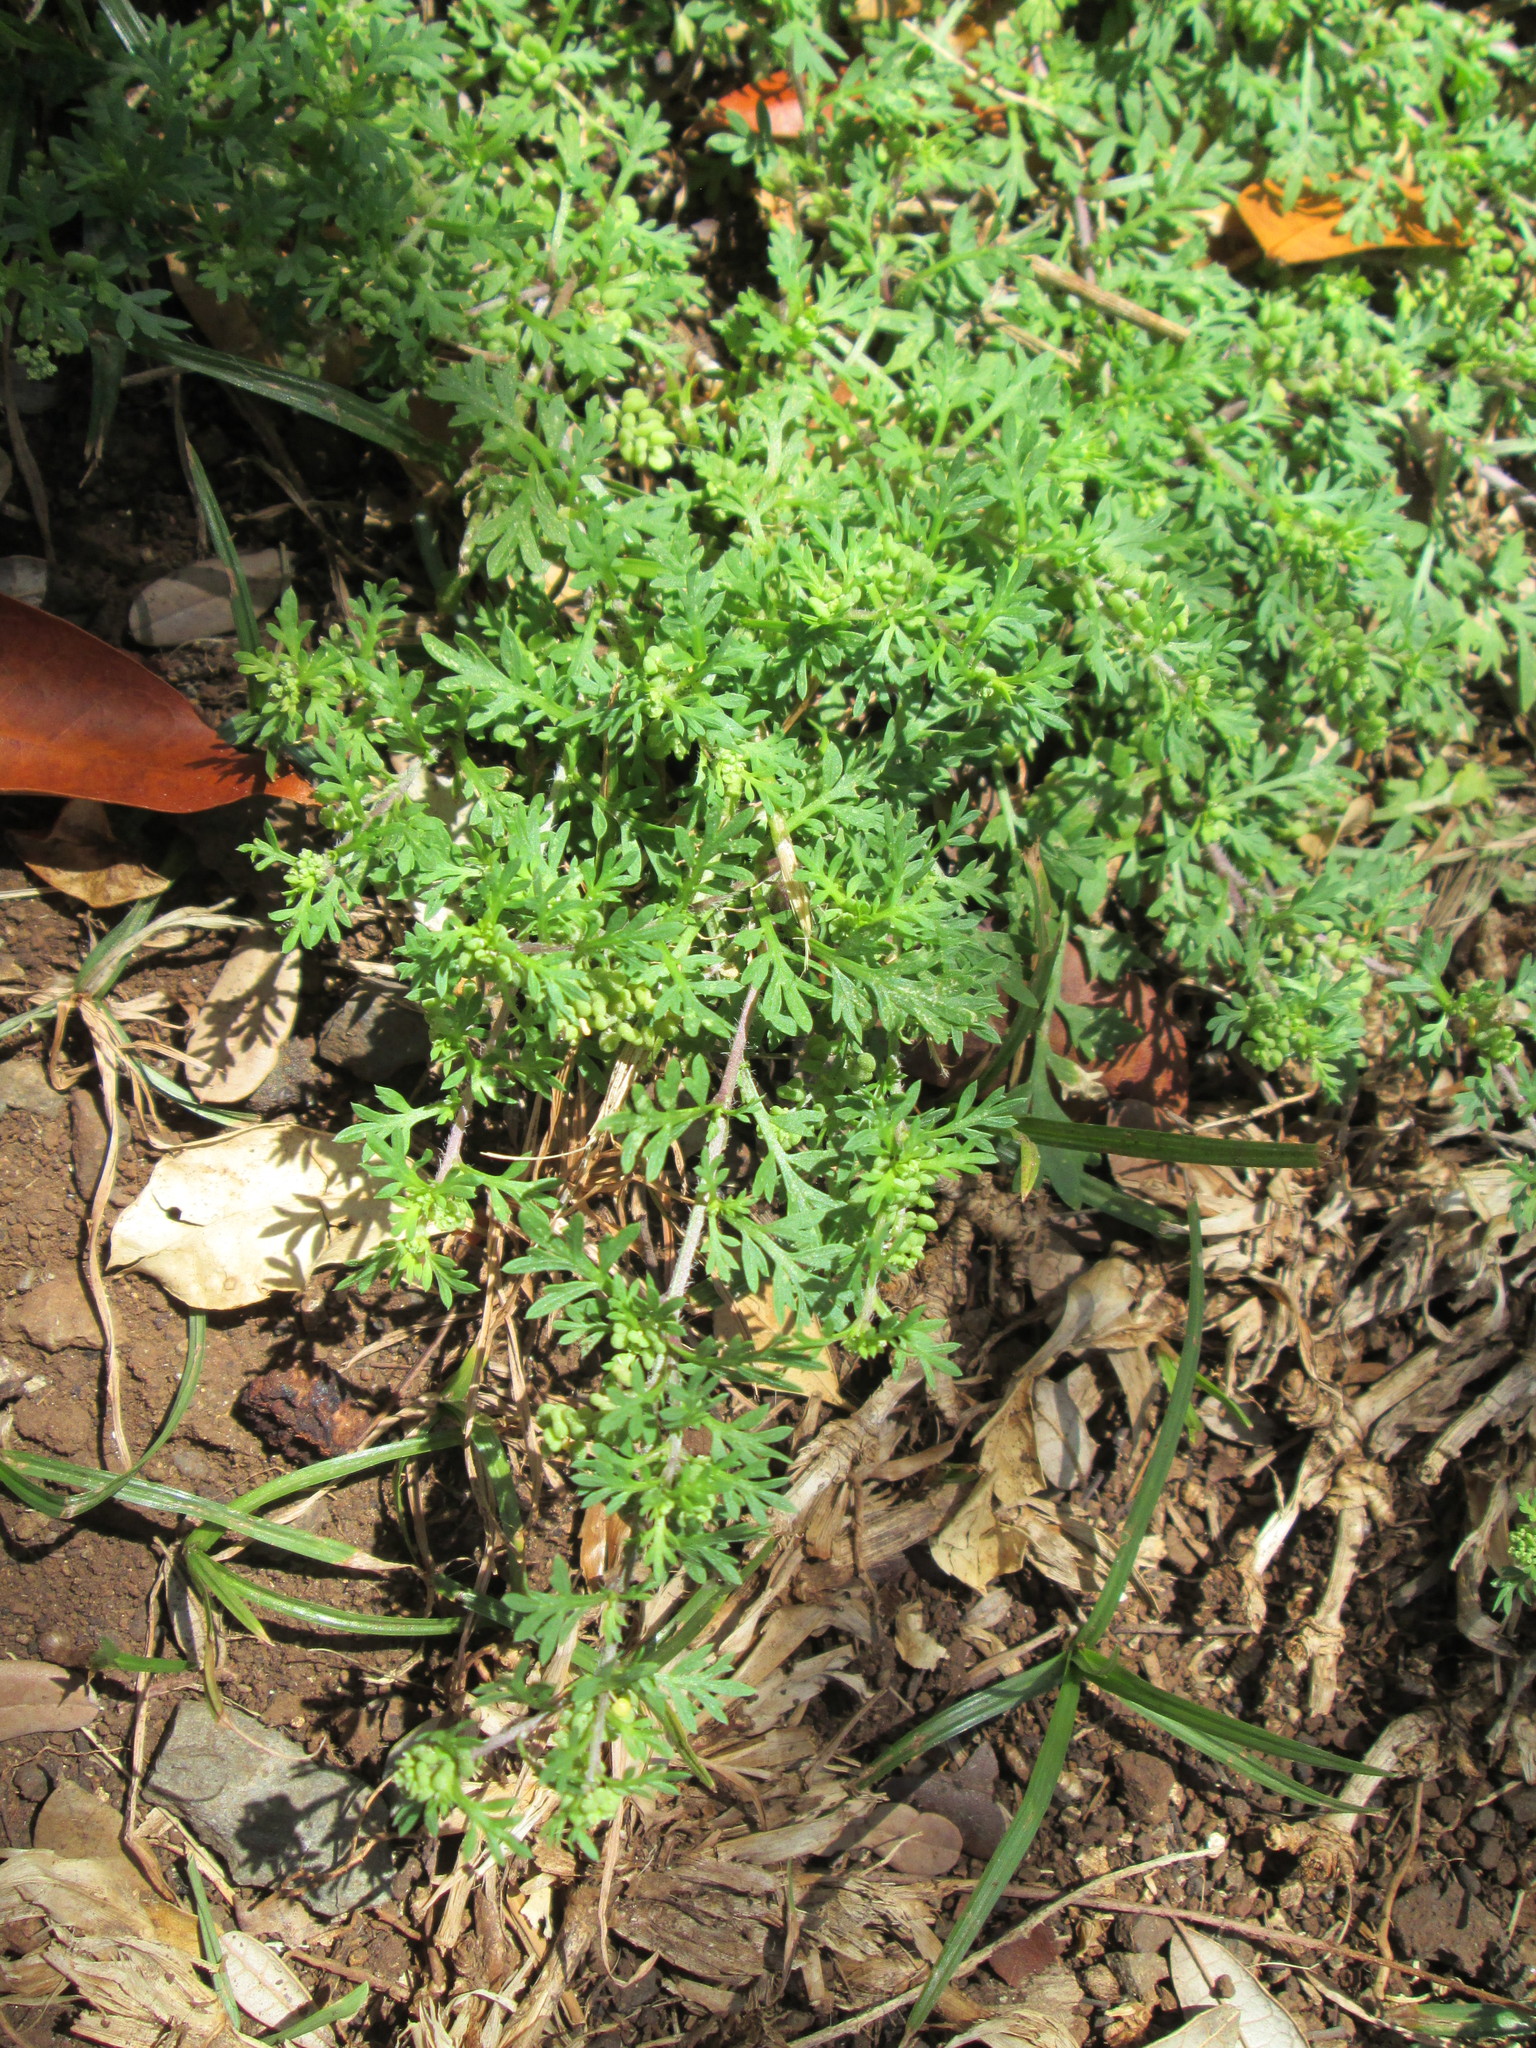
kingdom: Plantae
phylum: Tracheophyta
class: Magnoliopsida
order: Brassicales
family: Brassicaceae
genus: Lepidium
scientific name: Lepidium didymum
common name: Lesser swinecress
